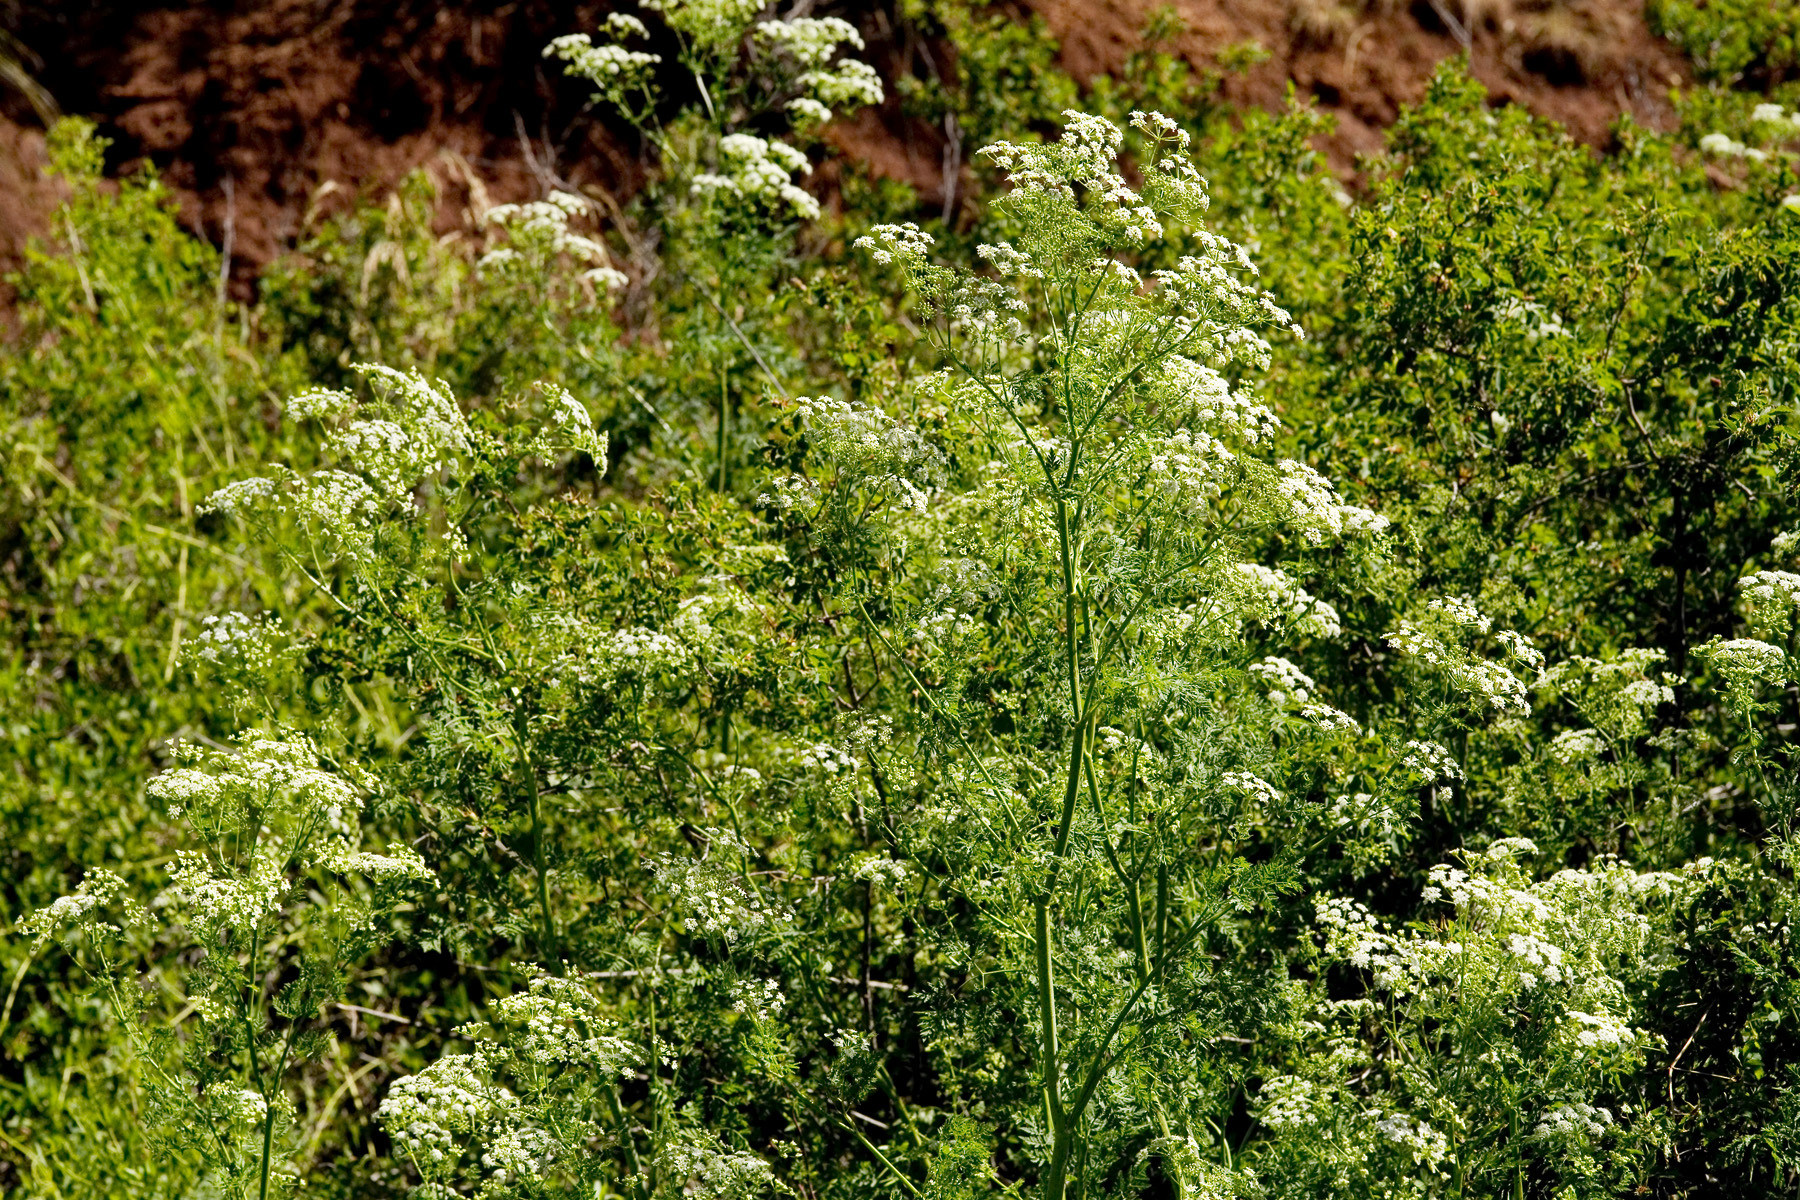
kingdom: Plantae
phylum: Tracheophyta
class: Magnoliopsida
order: Apiales
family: Apiaceae
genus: Conium
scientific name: Conium maculatum
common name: Hemlock
